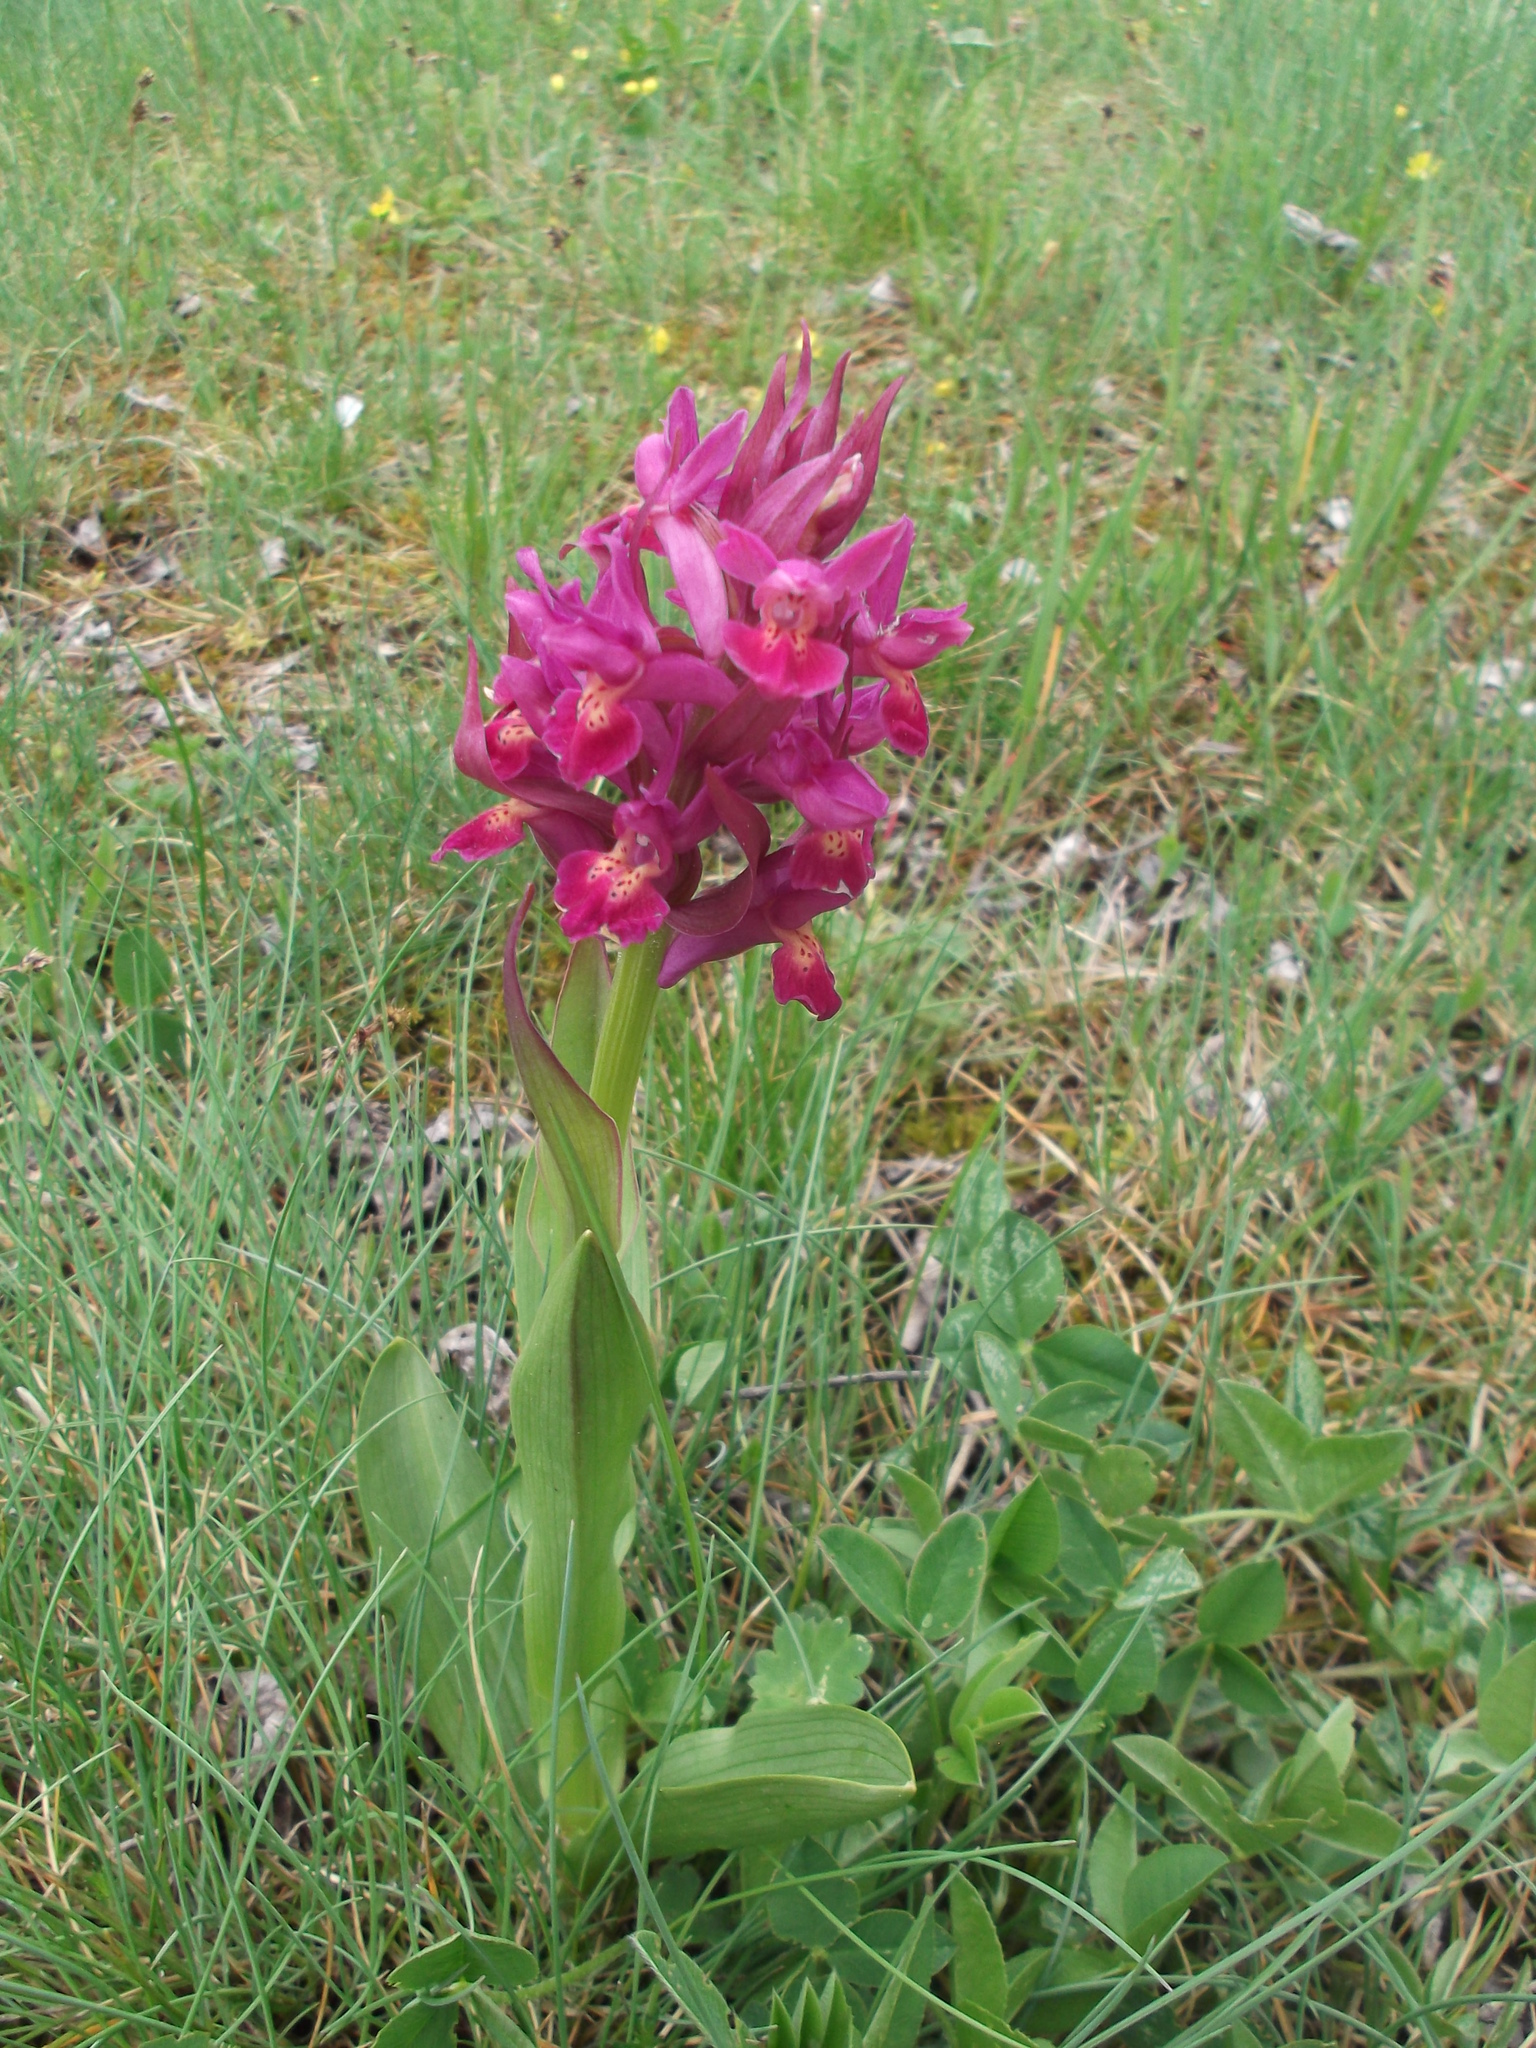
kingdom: Plantae
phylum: Tracheophyta
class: Liliopsida
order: Asparagales
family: Orchidaceae
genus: Dactylorhiza
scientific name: Dactylorhiza sambucina
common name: Elder-flowered orchid
